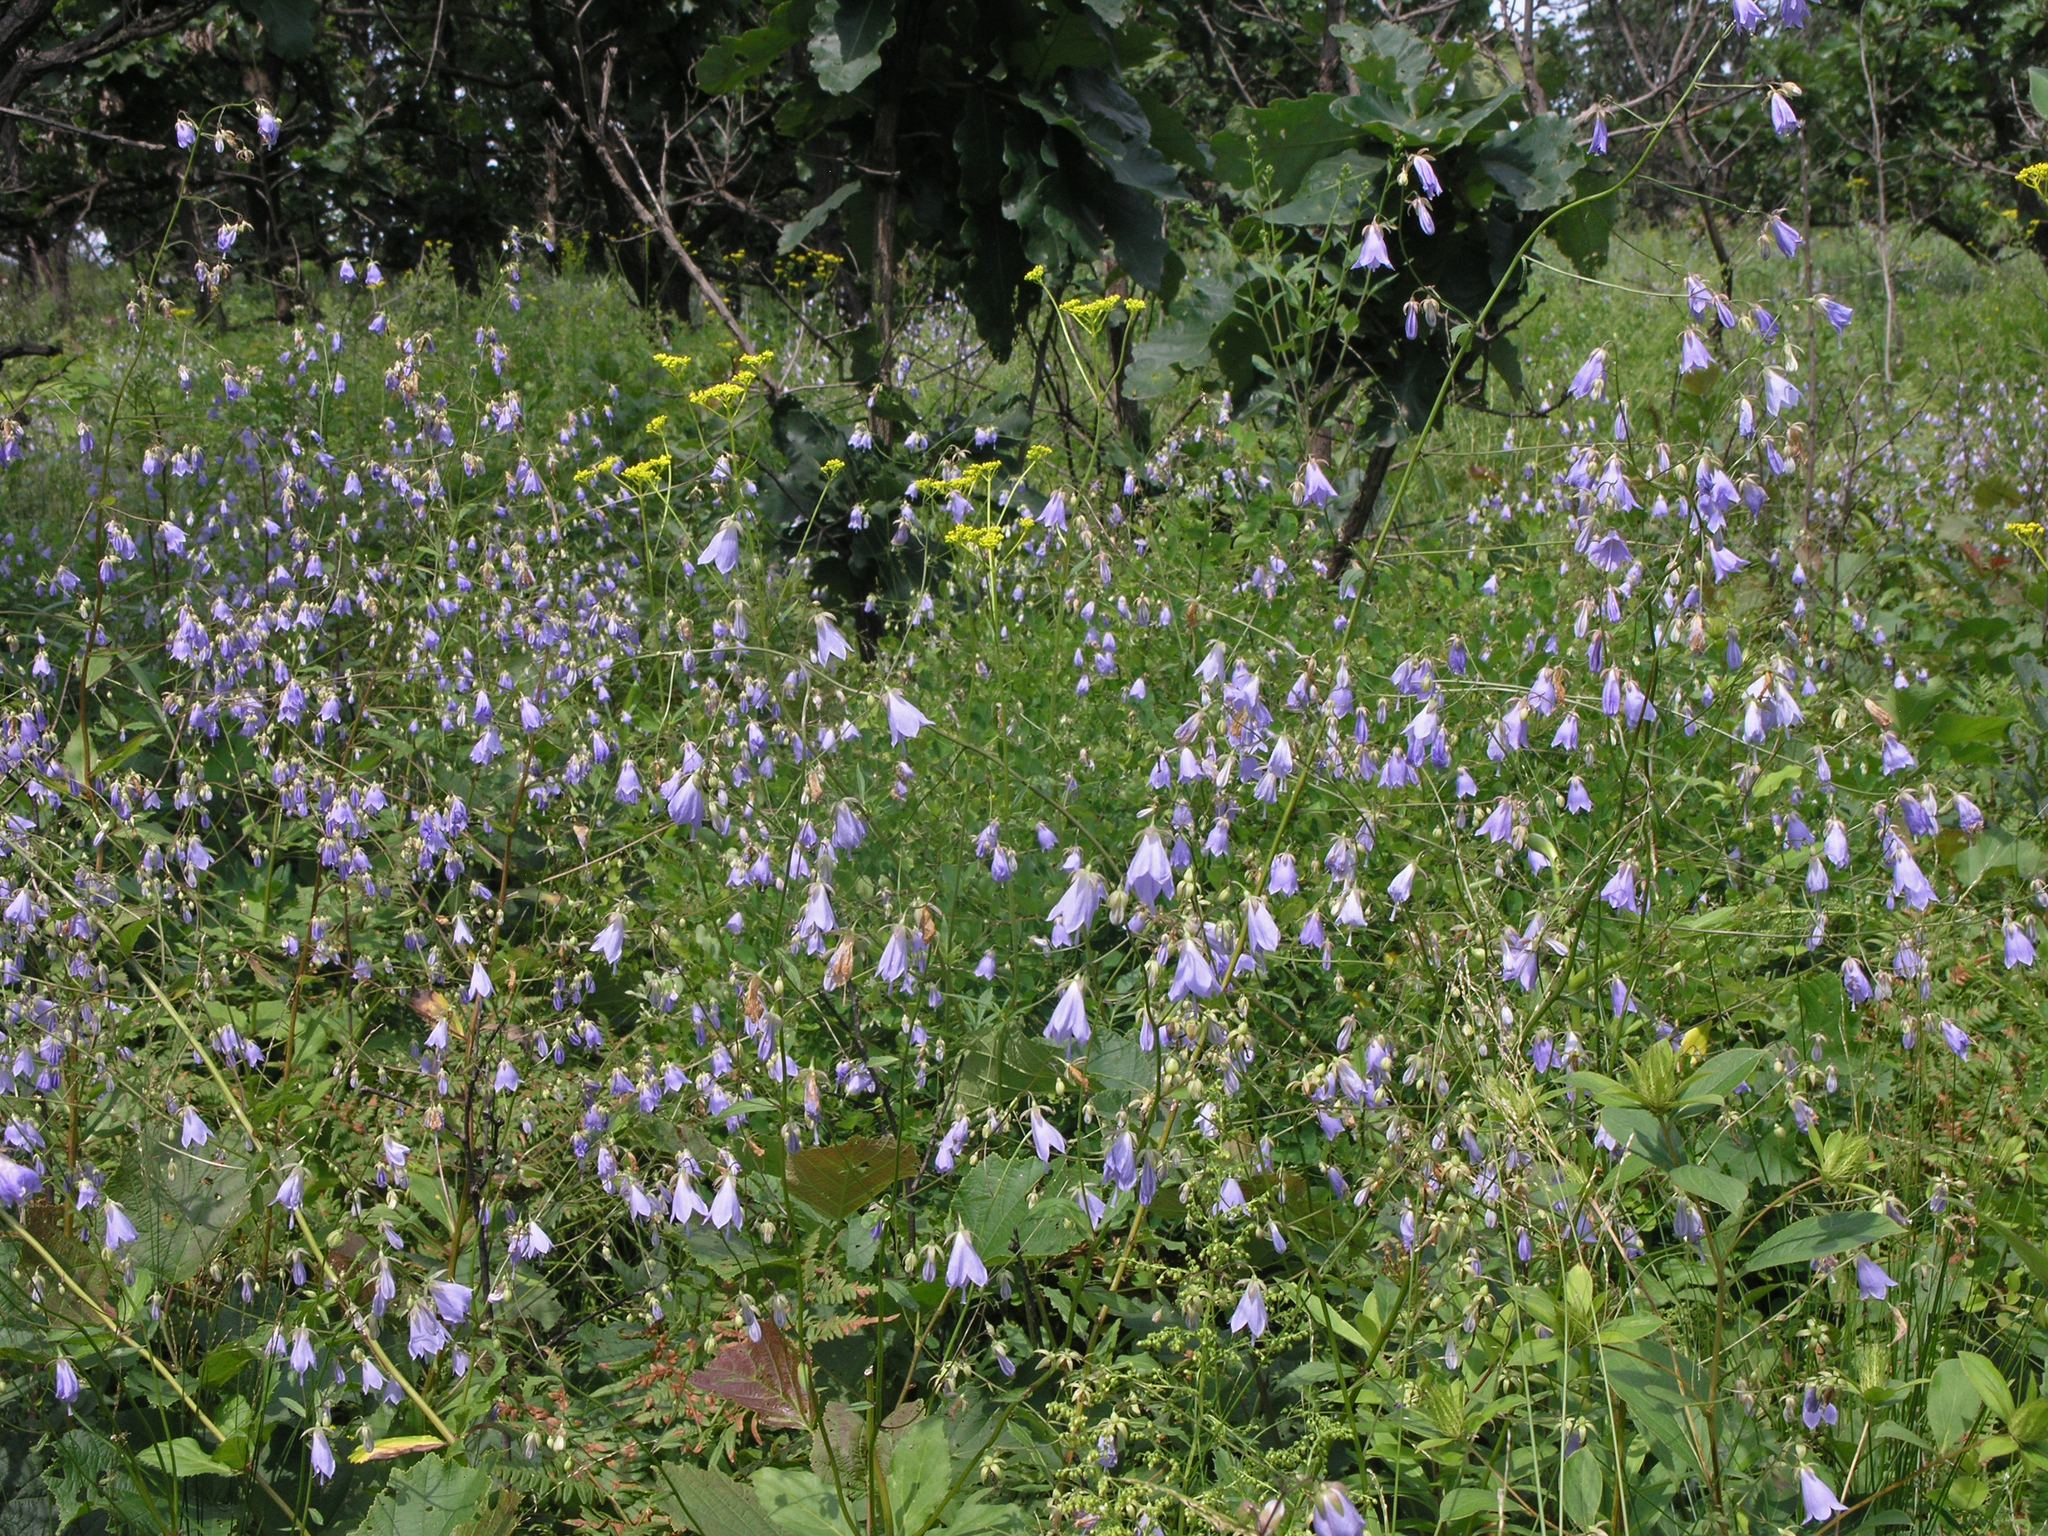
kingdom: Plantae
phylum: Tracheophyta
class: Magnoliopsida
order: Asterales
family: Campanulaceae
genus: Adenophora
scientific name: Adenophora divaricata
